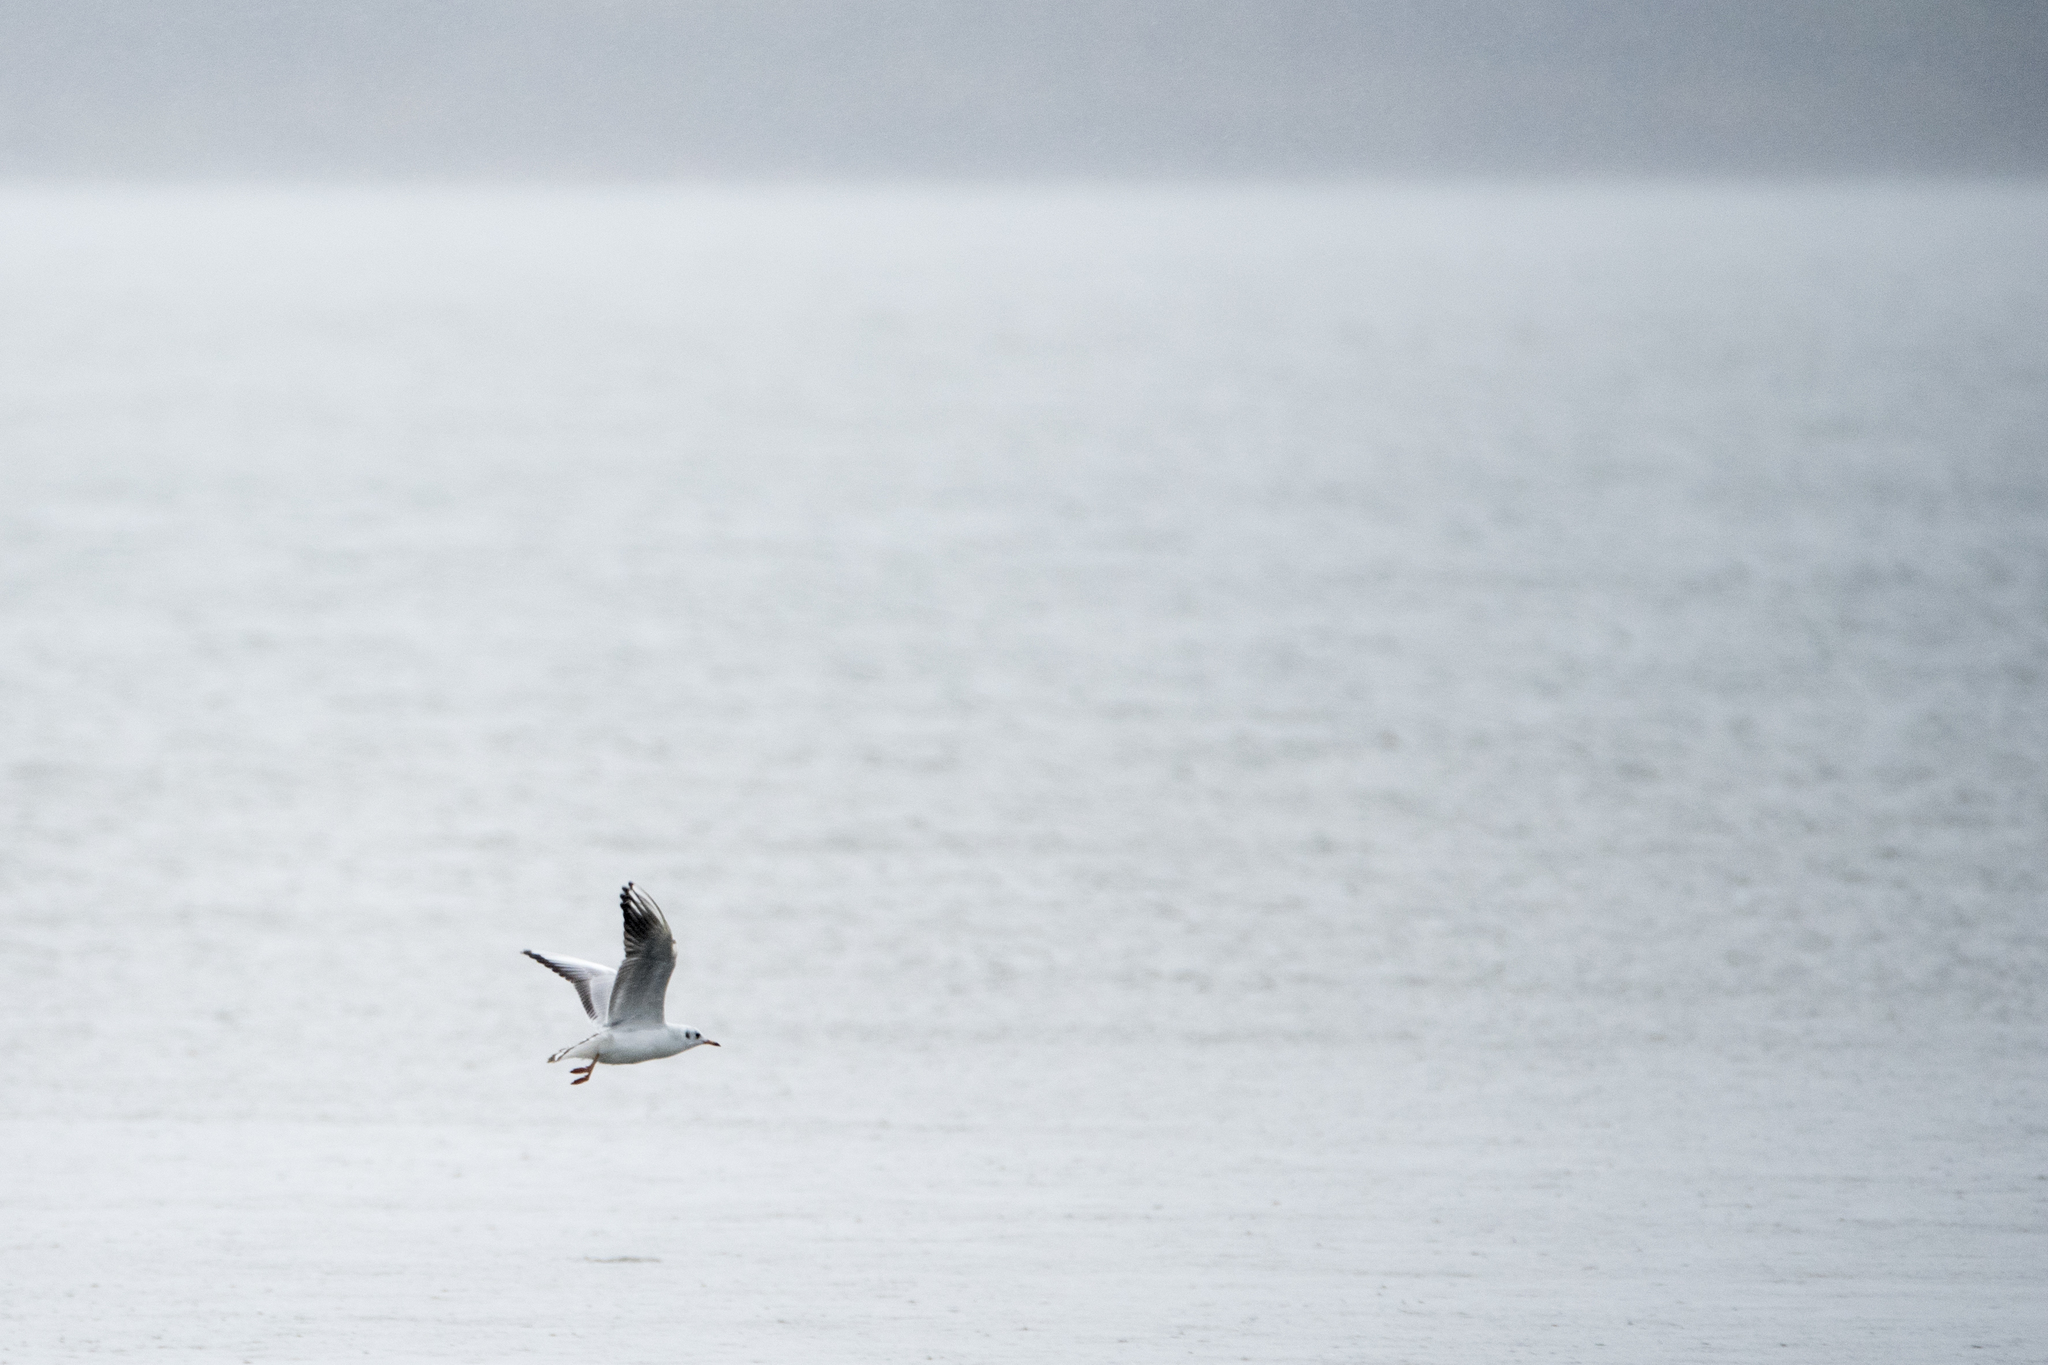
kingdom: Animalia
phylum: Chordata
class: Aves
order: Charadriiformes
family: Laridae
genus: Chroicocephalus
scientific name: Chroicocephalus ridibundus
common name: Black-headed gull
